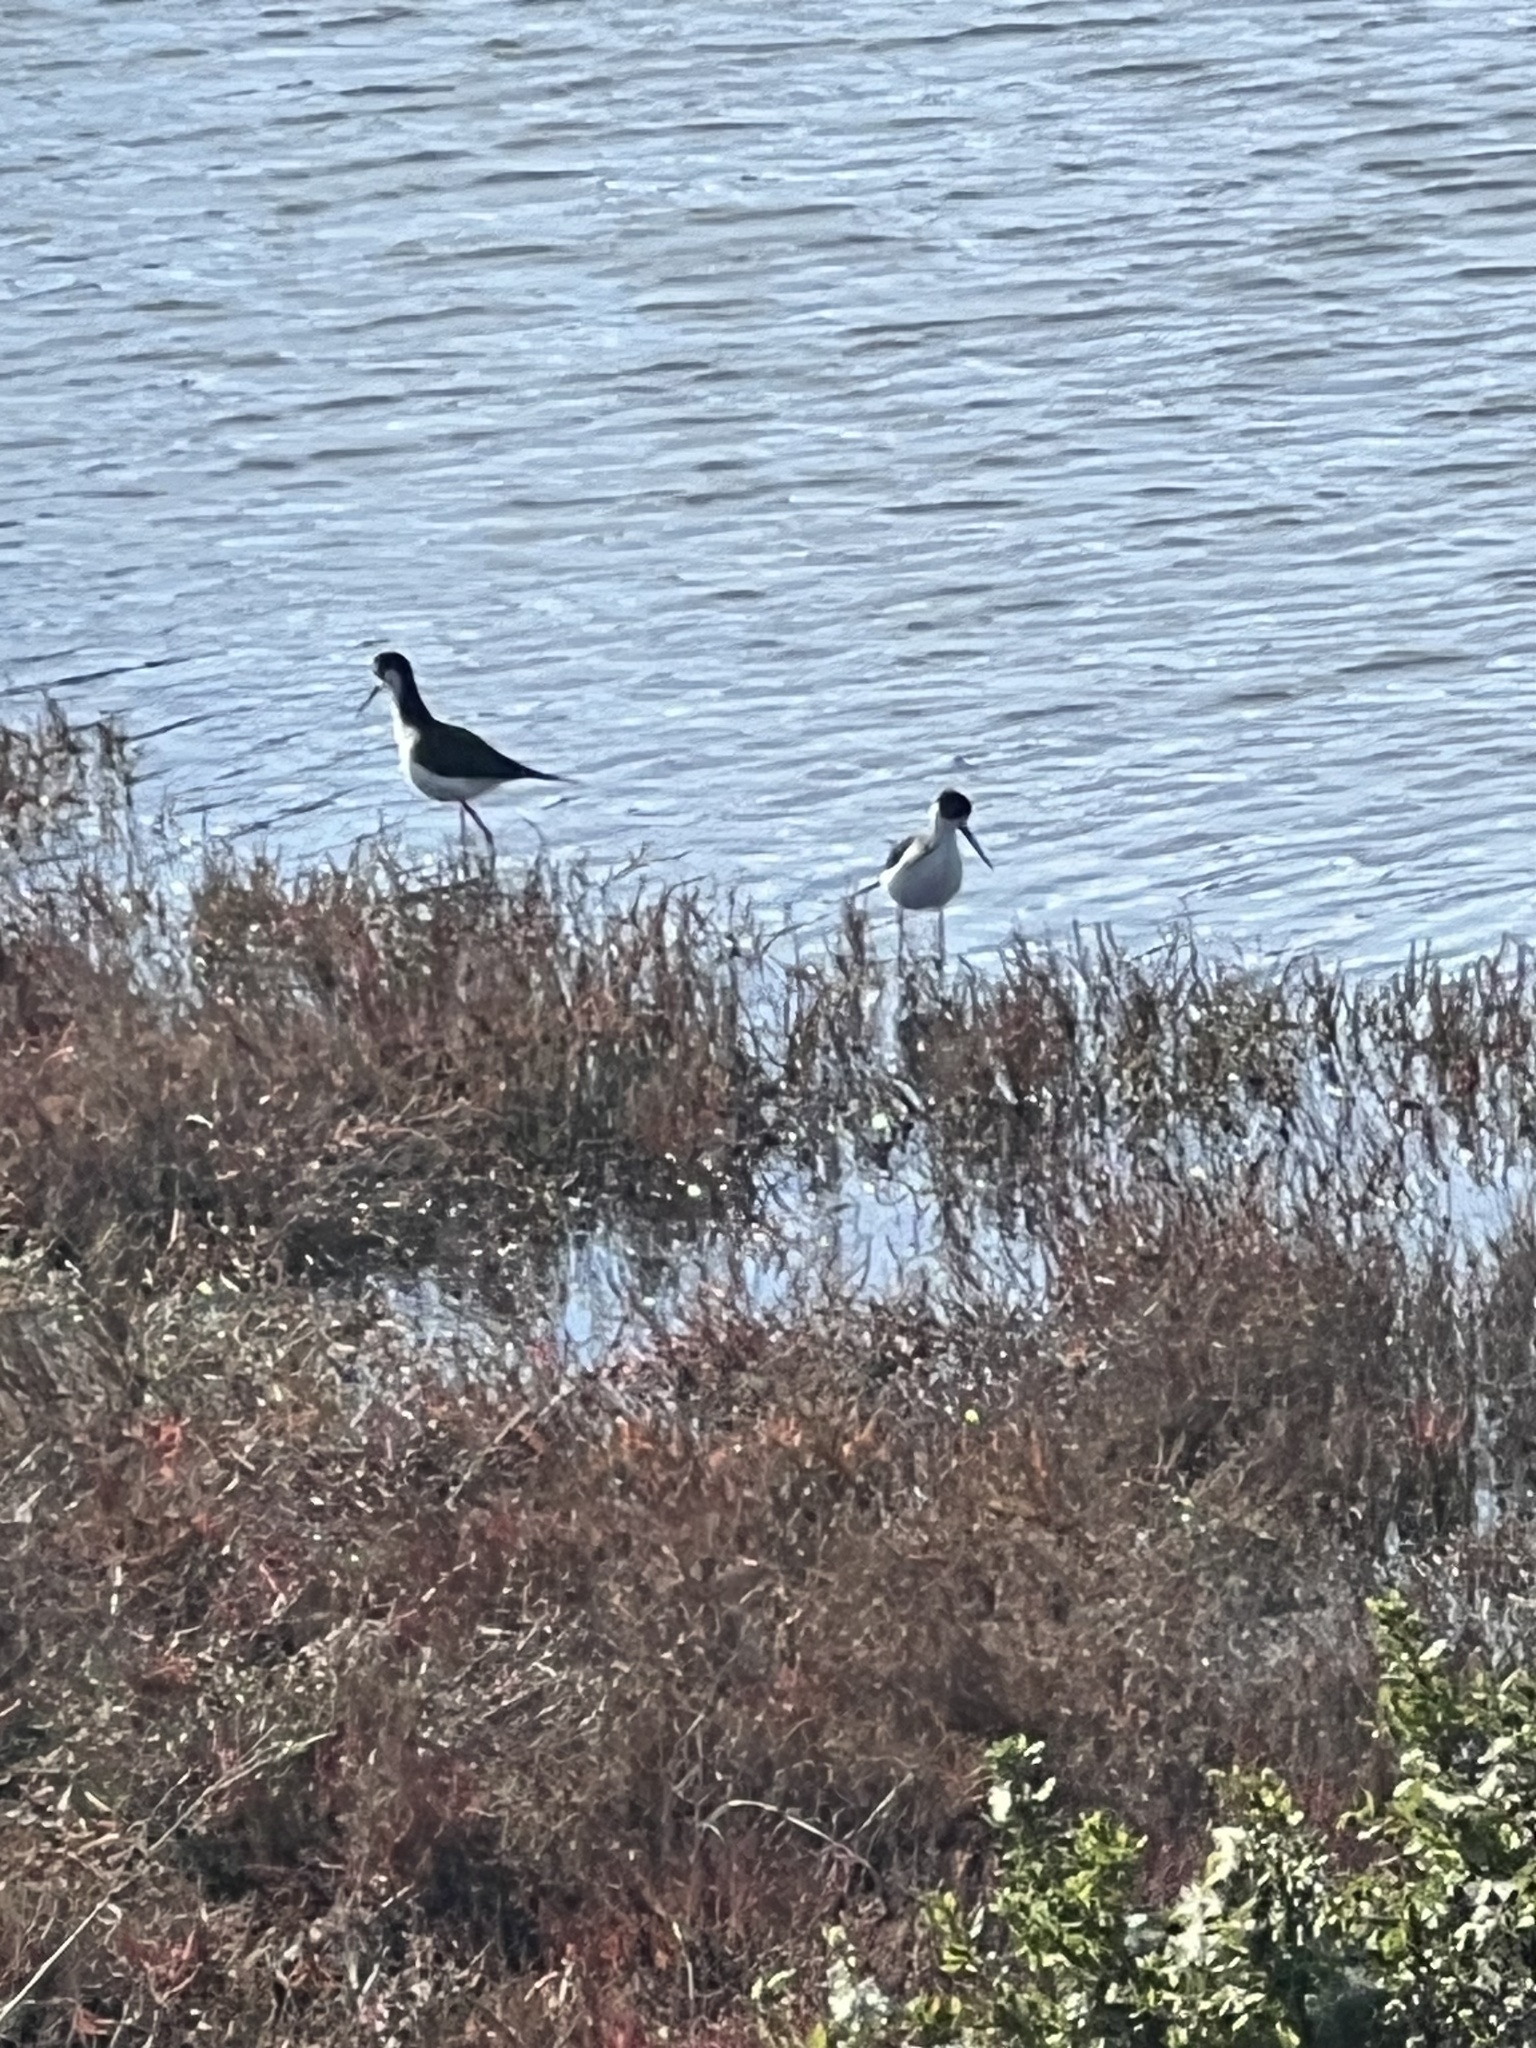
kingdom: Animalia
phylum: Chordata
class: Aves
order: Charadriiformes
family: Recurvirostridae
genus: Himantopus
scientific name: Himantopus mexicanus
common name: Black-necked stilt
